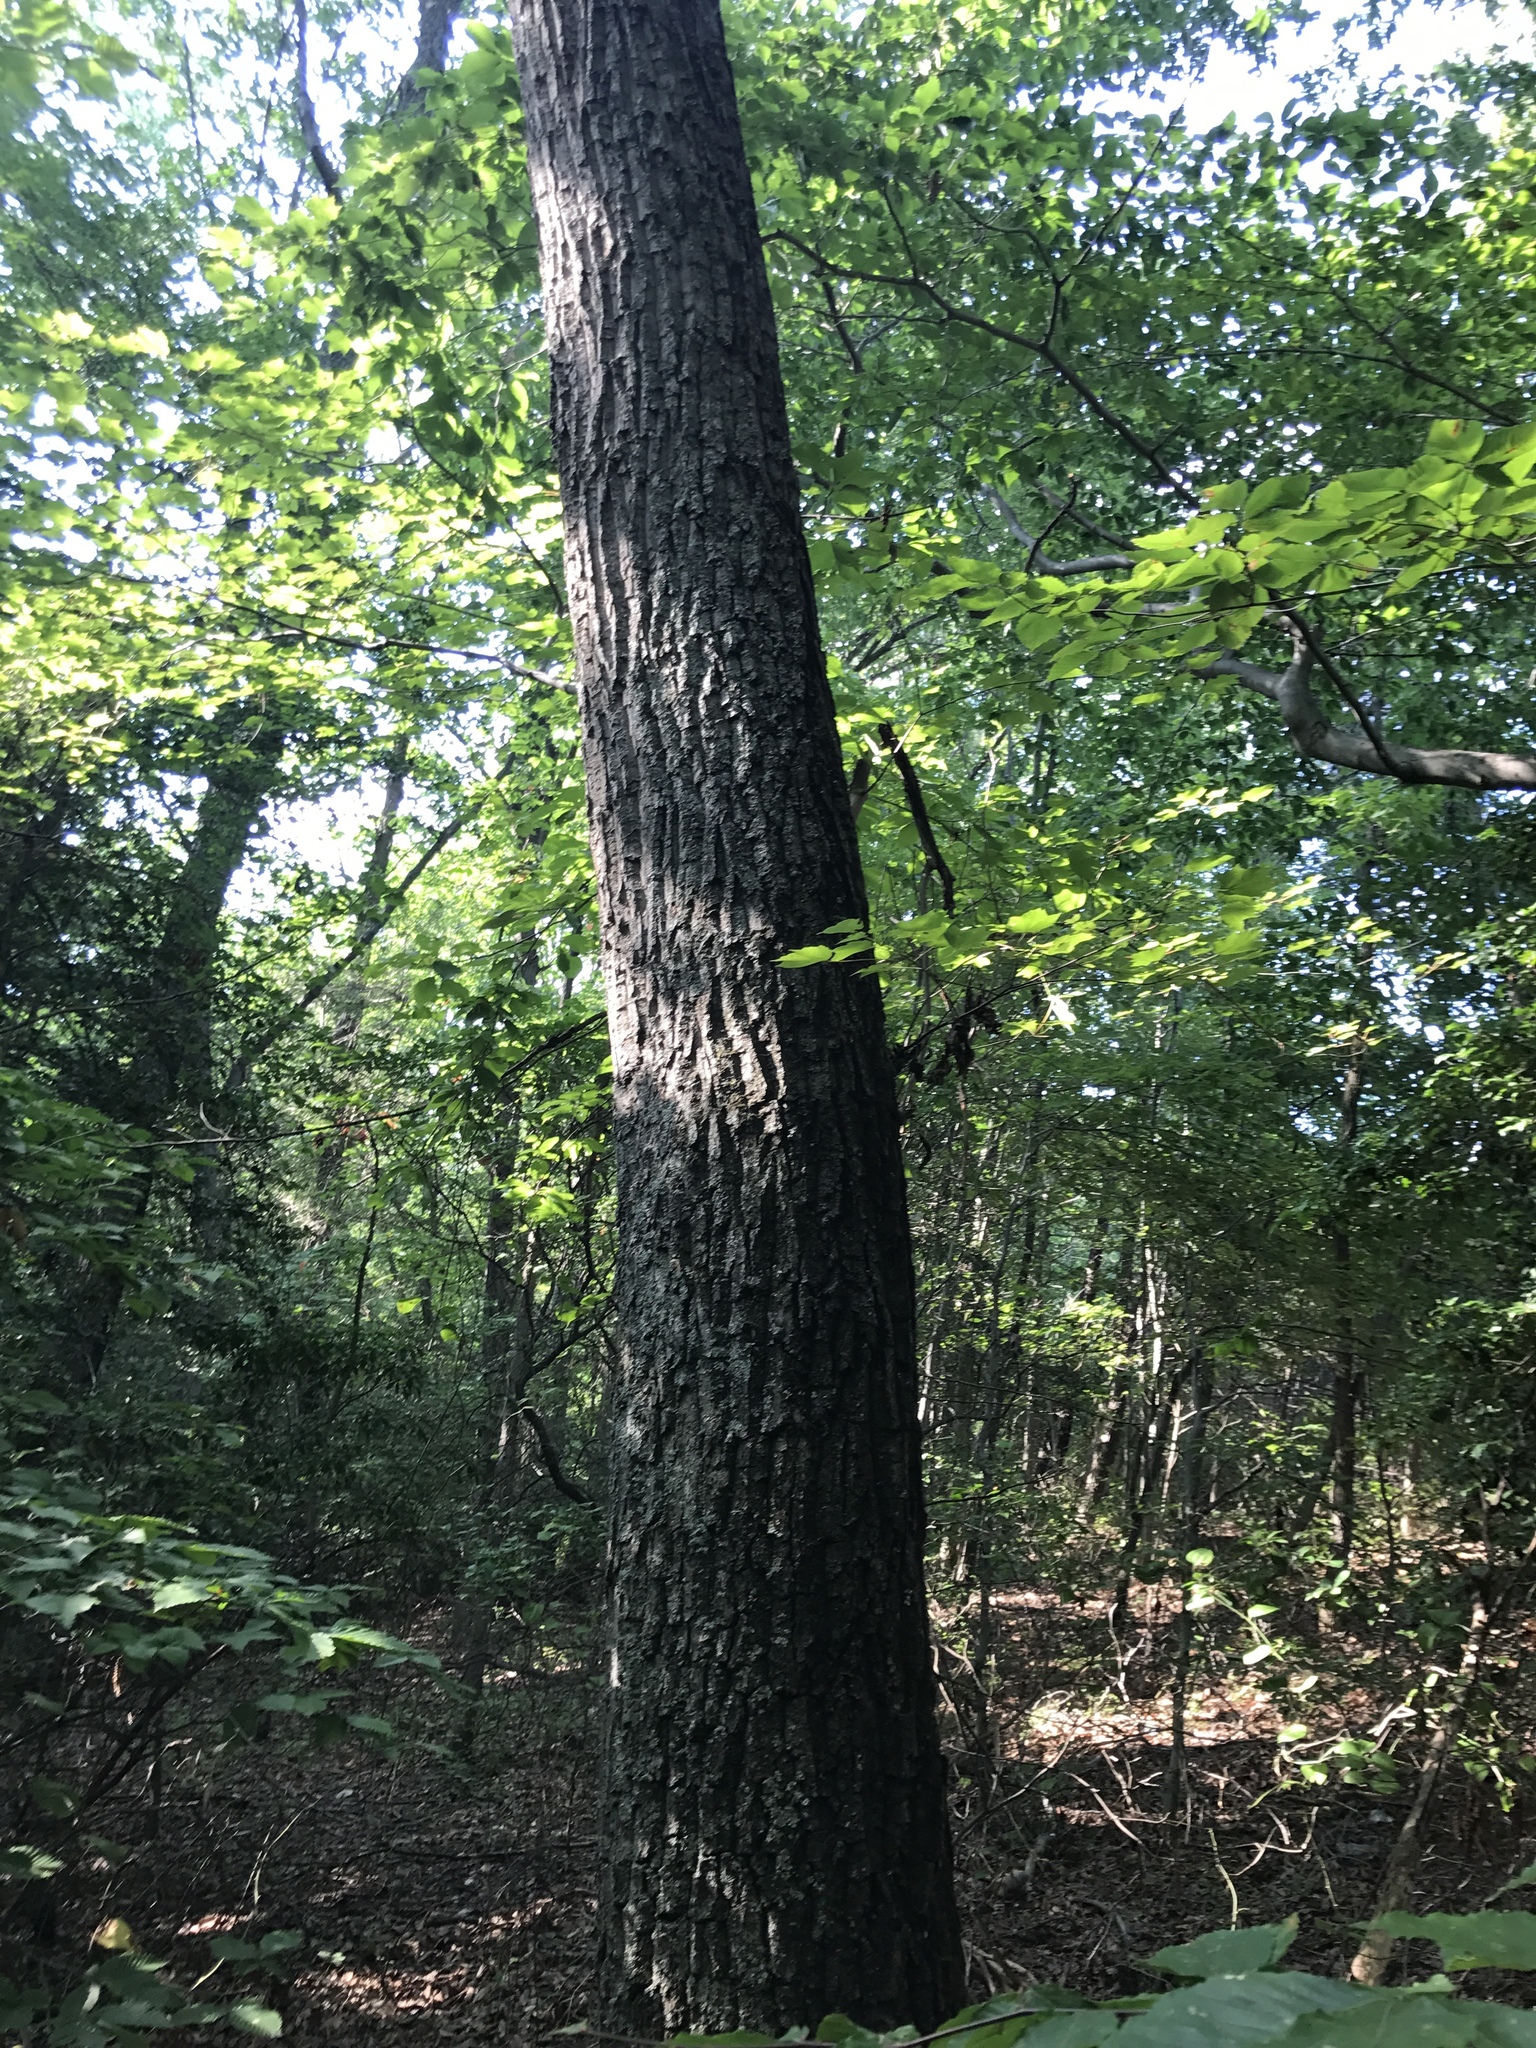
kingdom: Plantae
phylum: Tracheophyta
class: Magnoliopsida
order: Fagales
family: Fagaceae
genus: Quercus
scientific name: Quercus montana
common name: Chestnut oak
